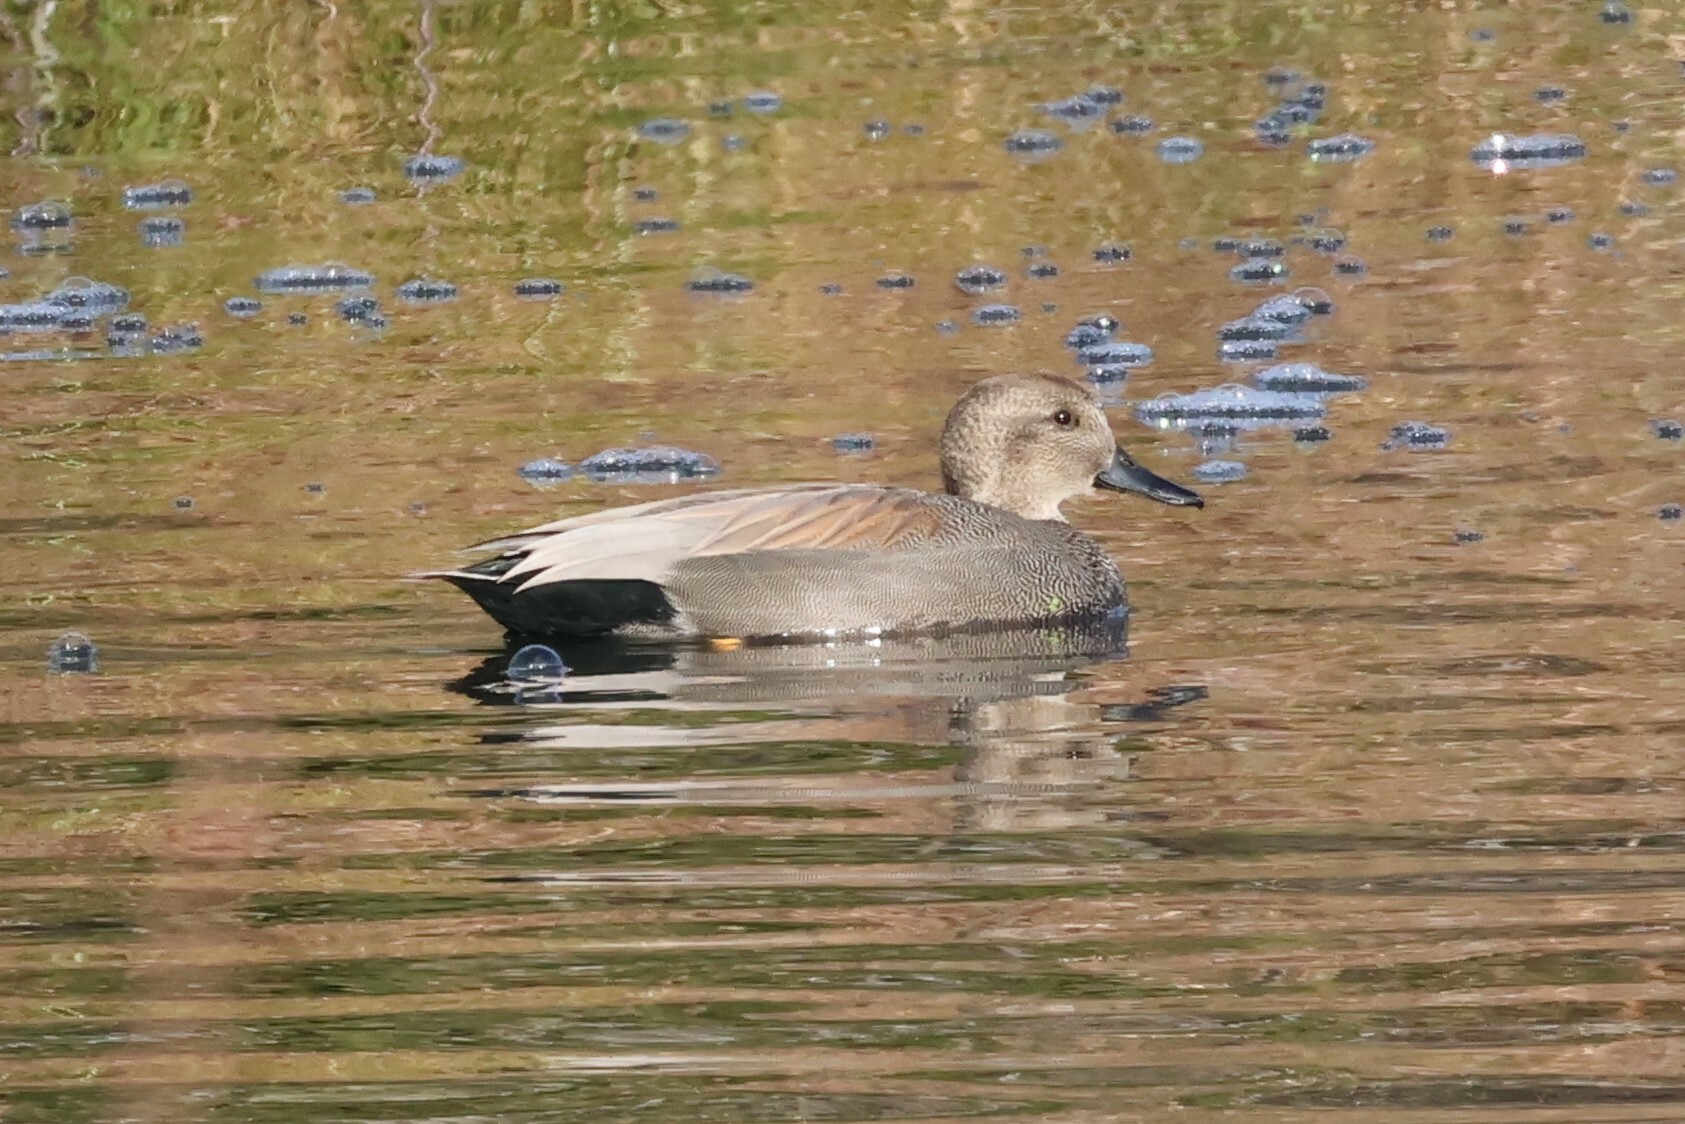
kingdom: Animalia
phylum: Chordata
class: Aves
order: Anseriformes
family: Anatidae
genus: Mareca
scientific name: Mareca strepera
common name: Gadwall
